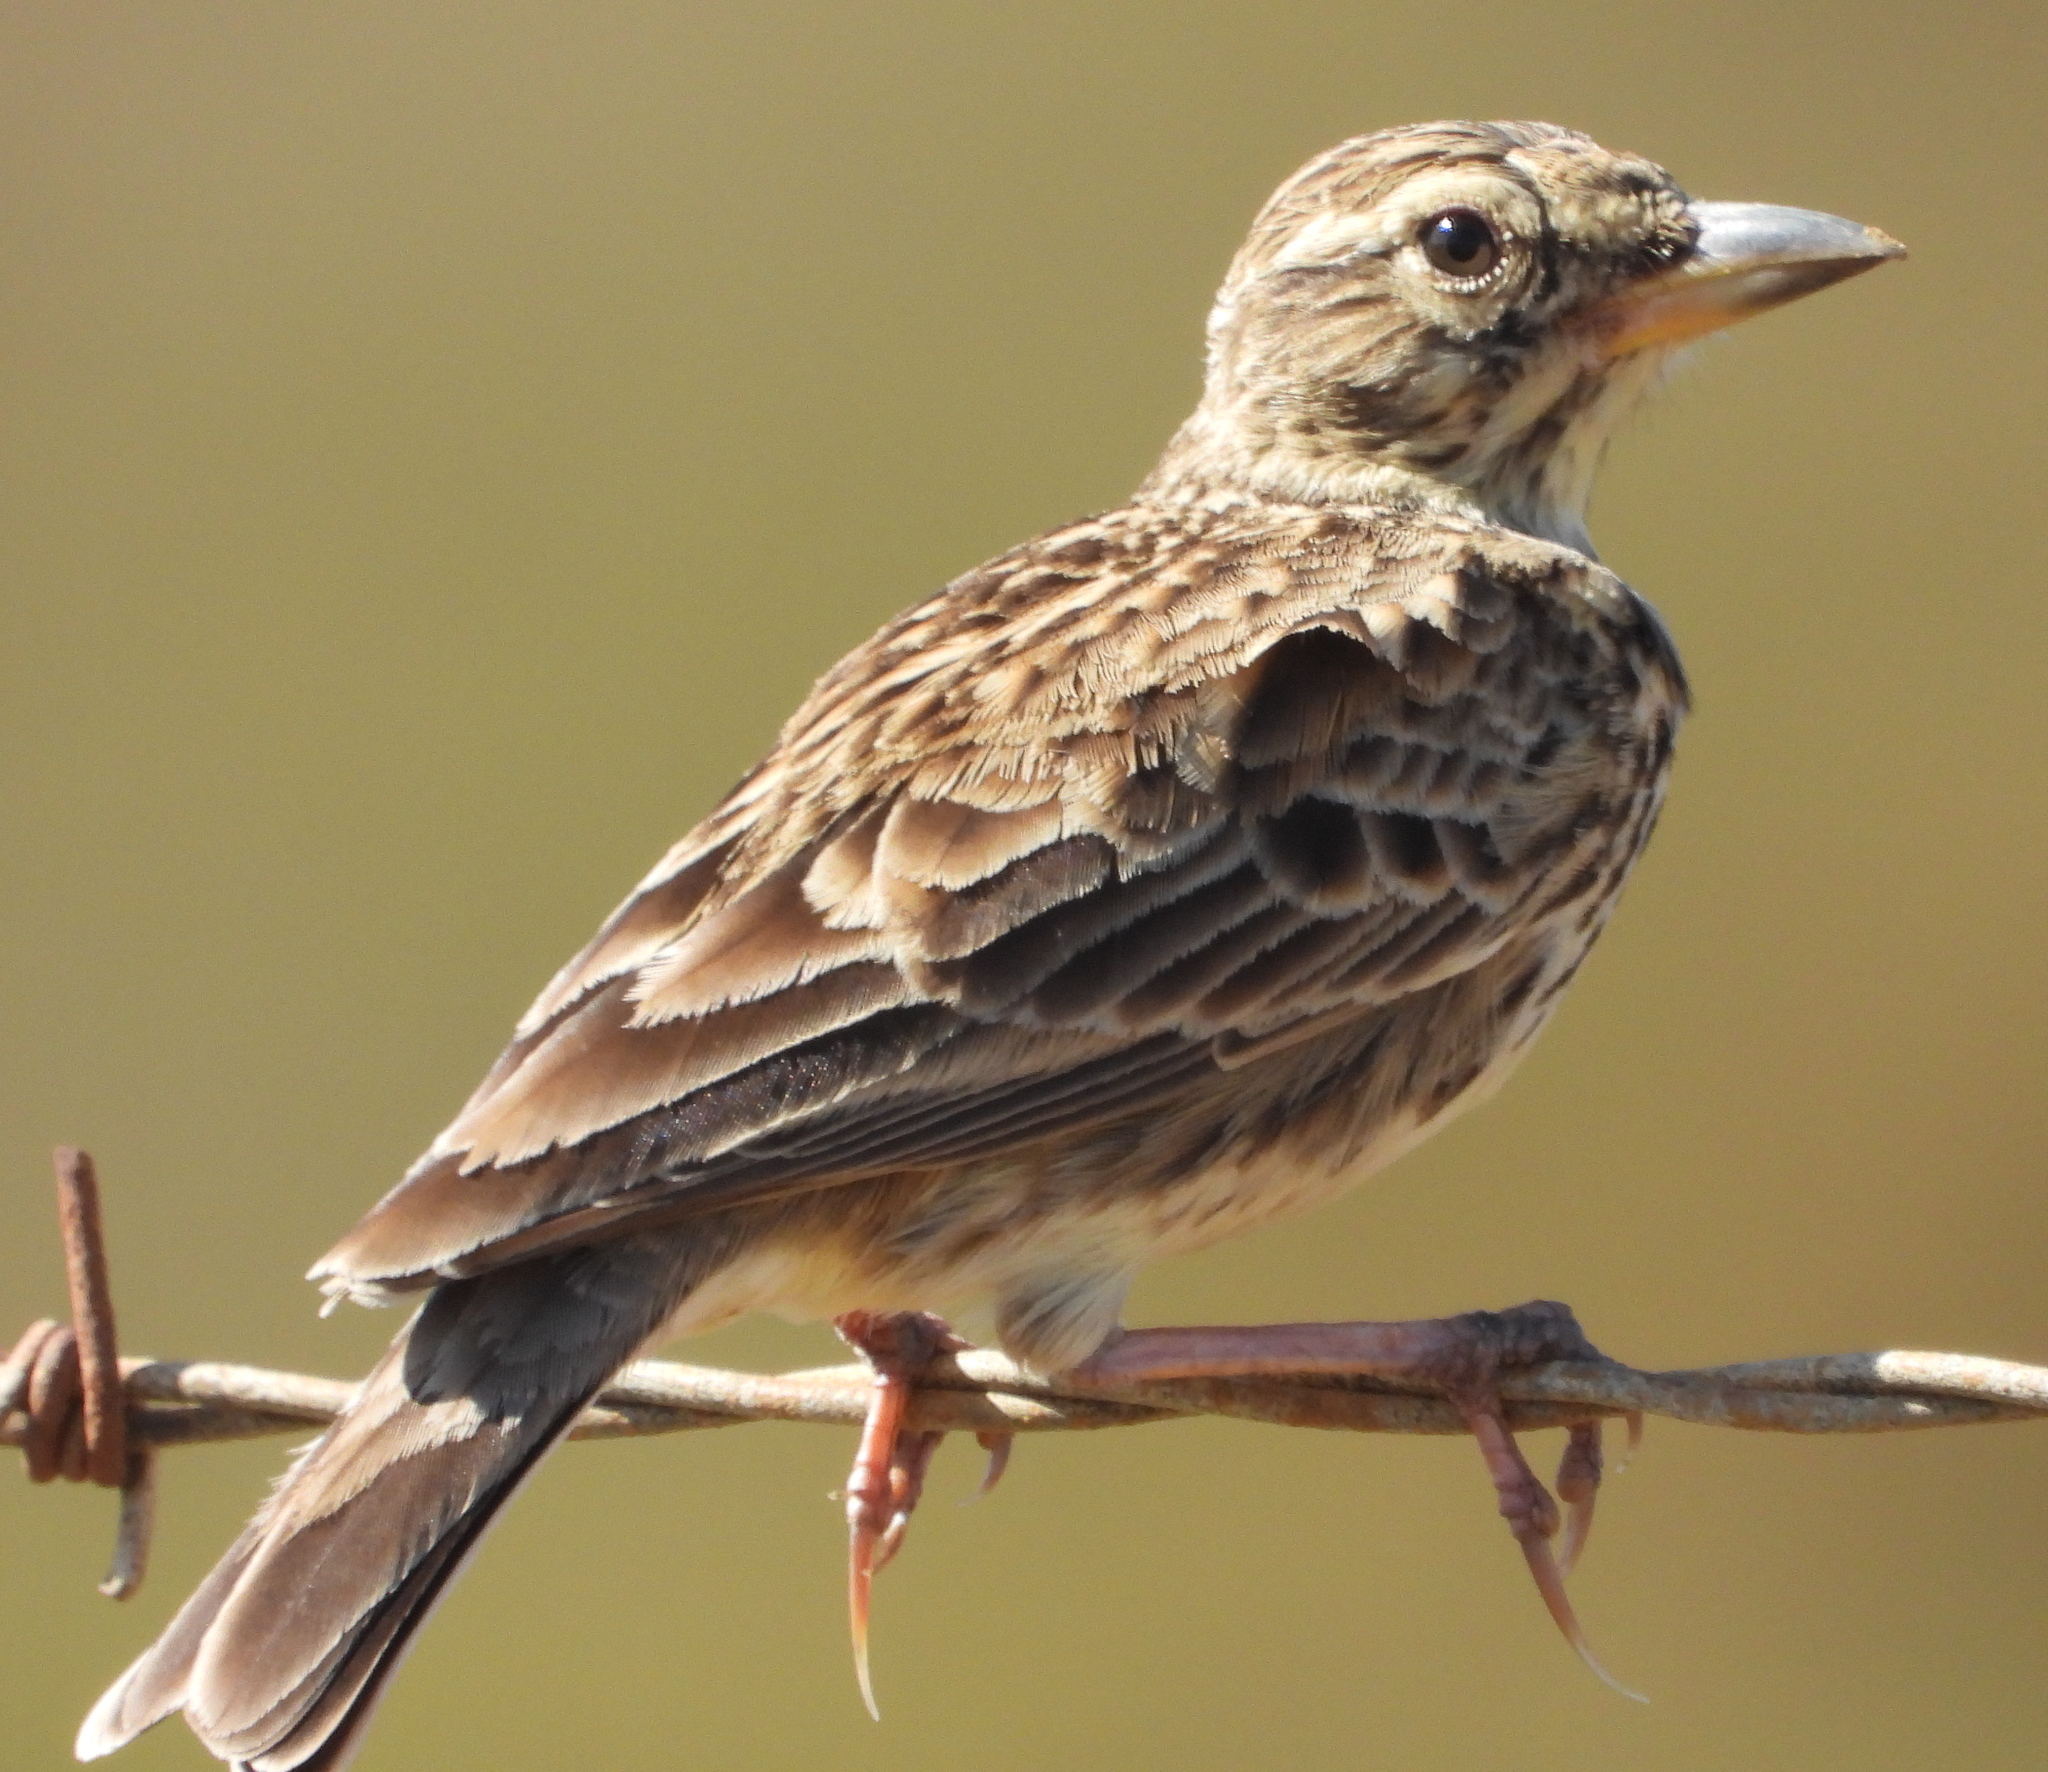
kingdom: Animalia
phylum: Chordata
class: Aves
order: Passeriformes
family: Alaudidae
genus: Galerida
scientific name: Galerida magnirostris
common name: Large-billed lark
